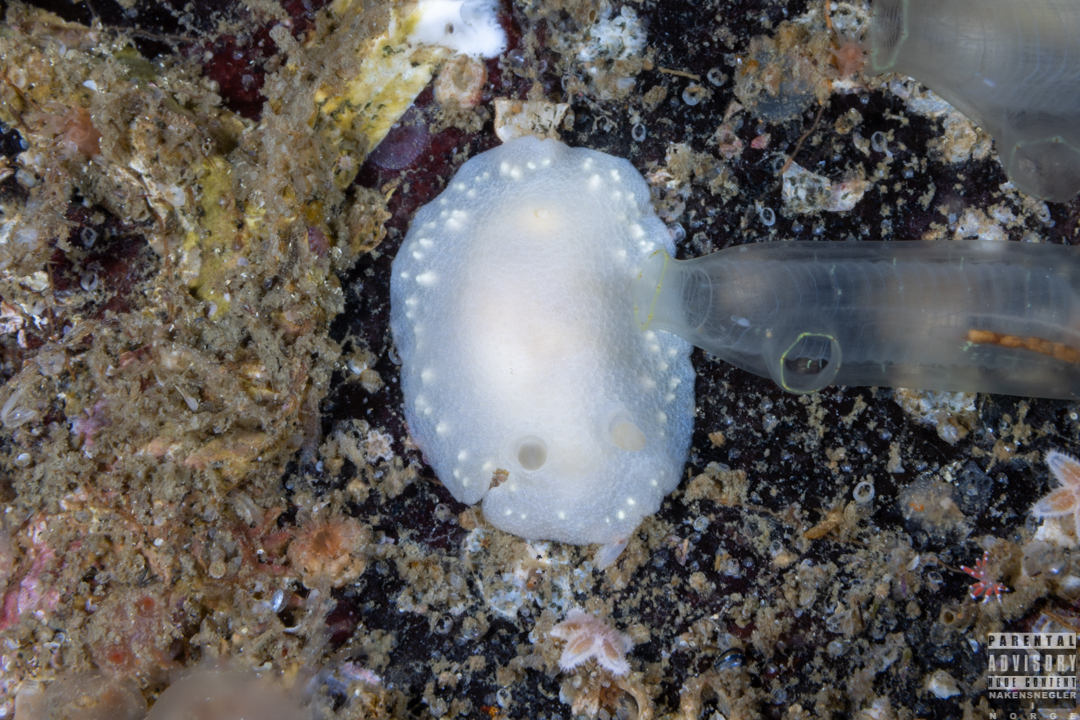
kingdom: Animalia
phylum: Mollusca
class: Gastropoda
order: Nudibranchia
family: Cadlinidae
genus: Cadlina
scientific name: Cadlina laevis
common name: White atlantic cadlina
